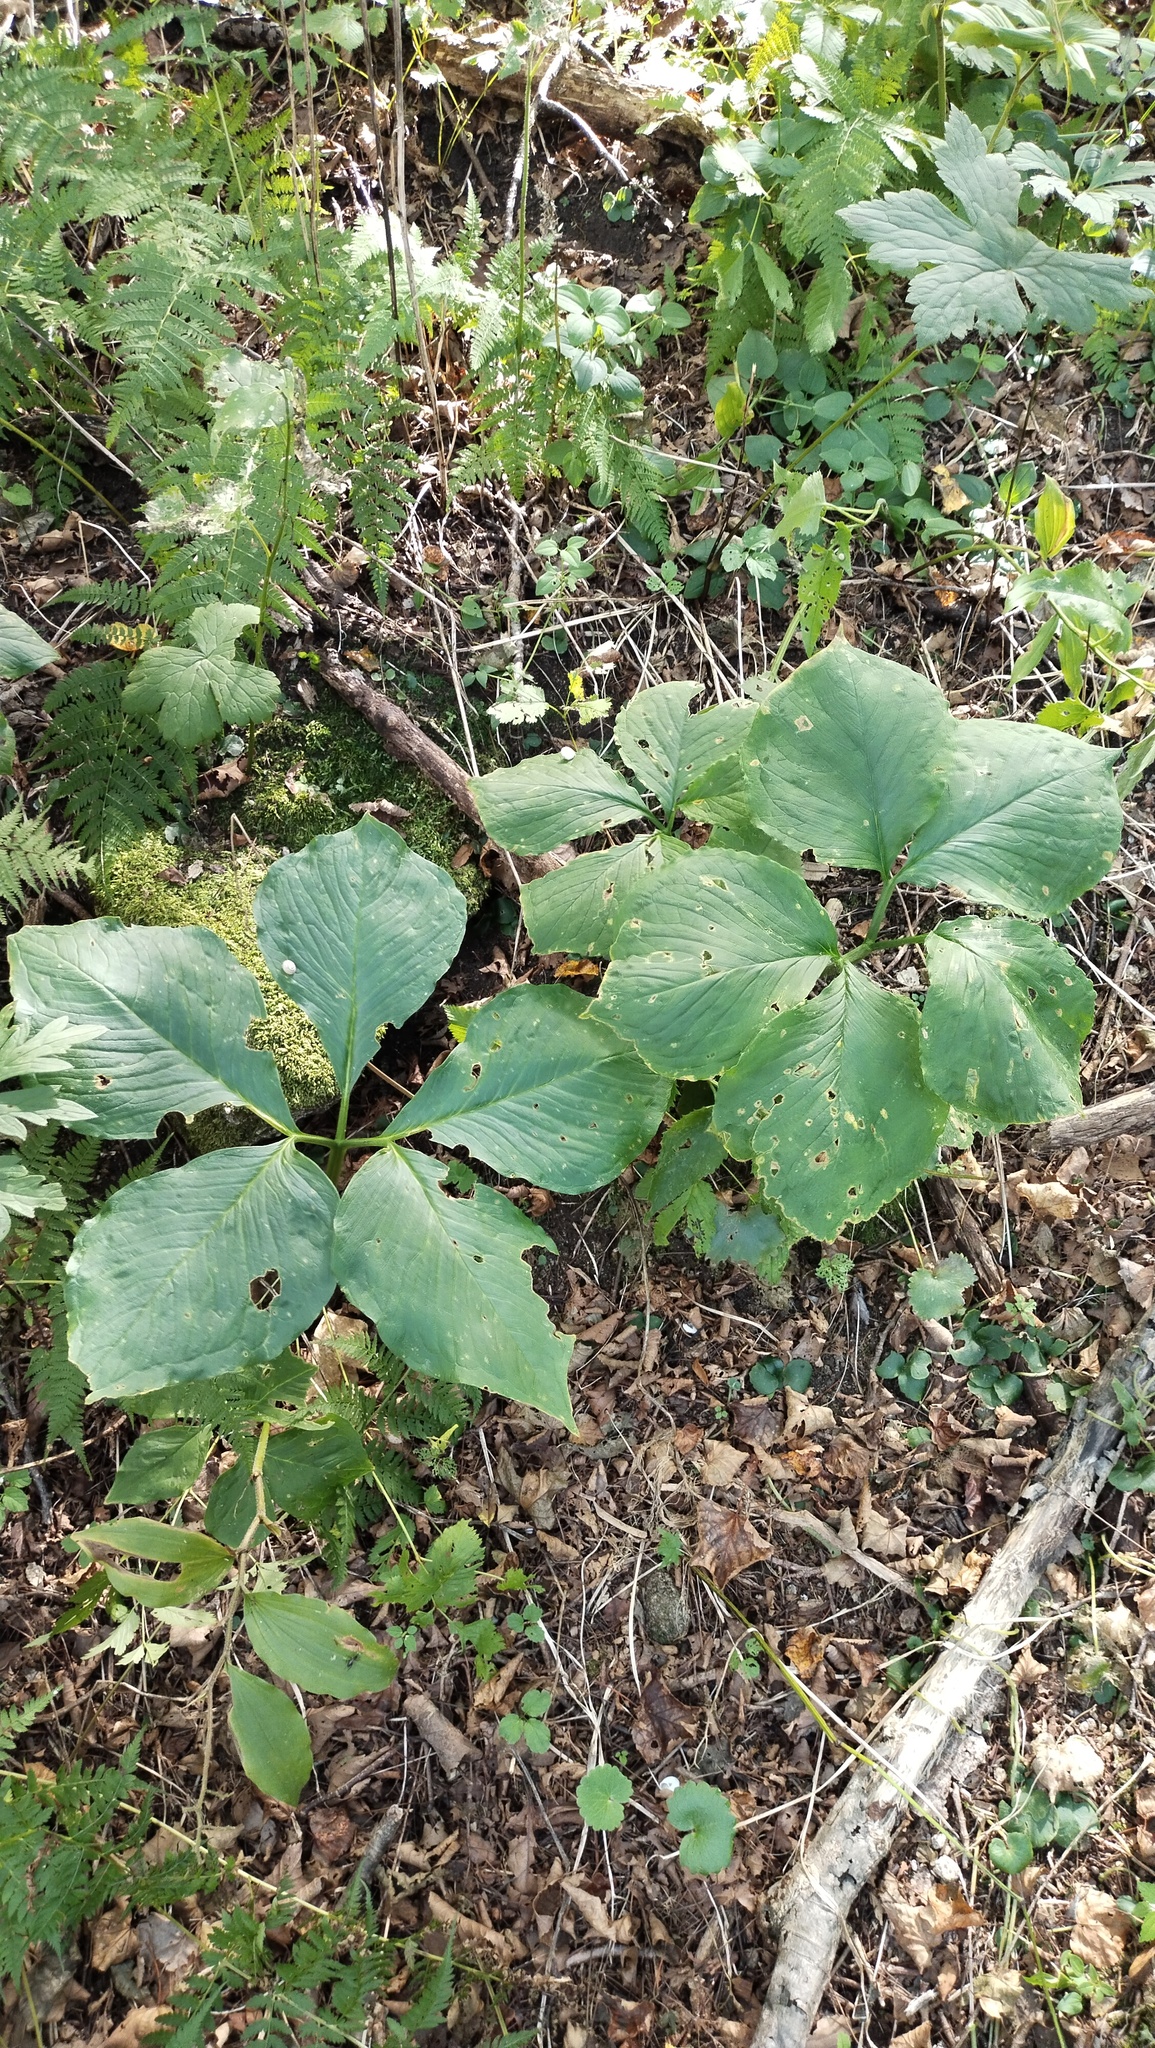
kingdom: Plantae
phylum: Tracheophyta
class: Liliopsida
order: Alismatales
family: Araceae
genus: Arisaema
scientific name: Arisaema amurense
